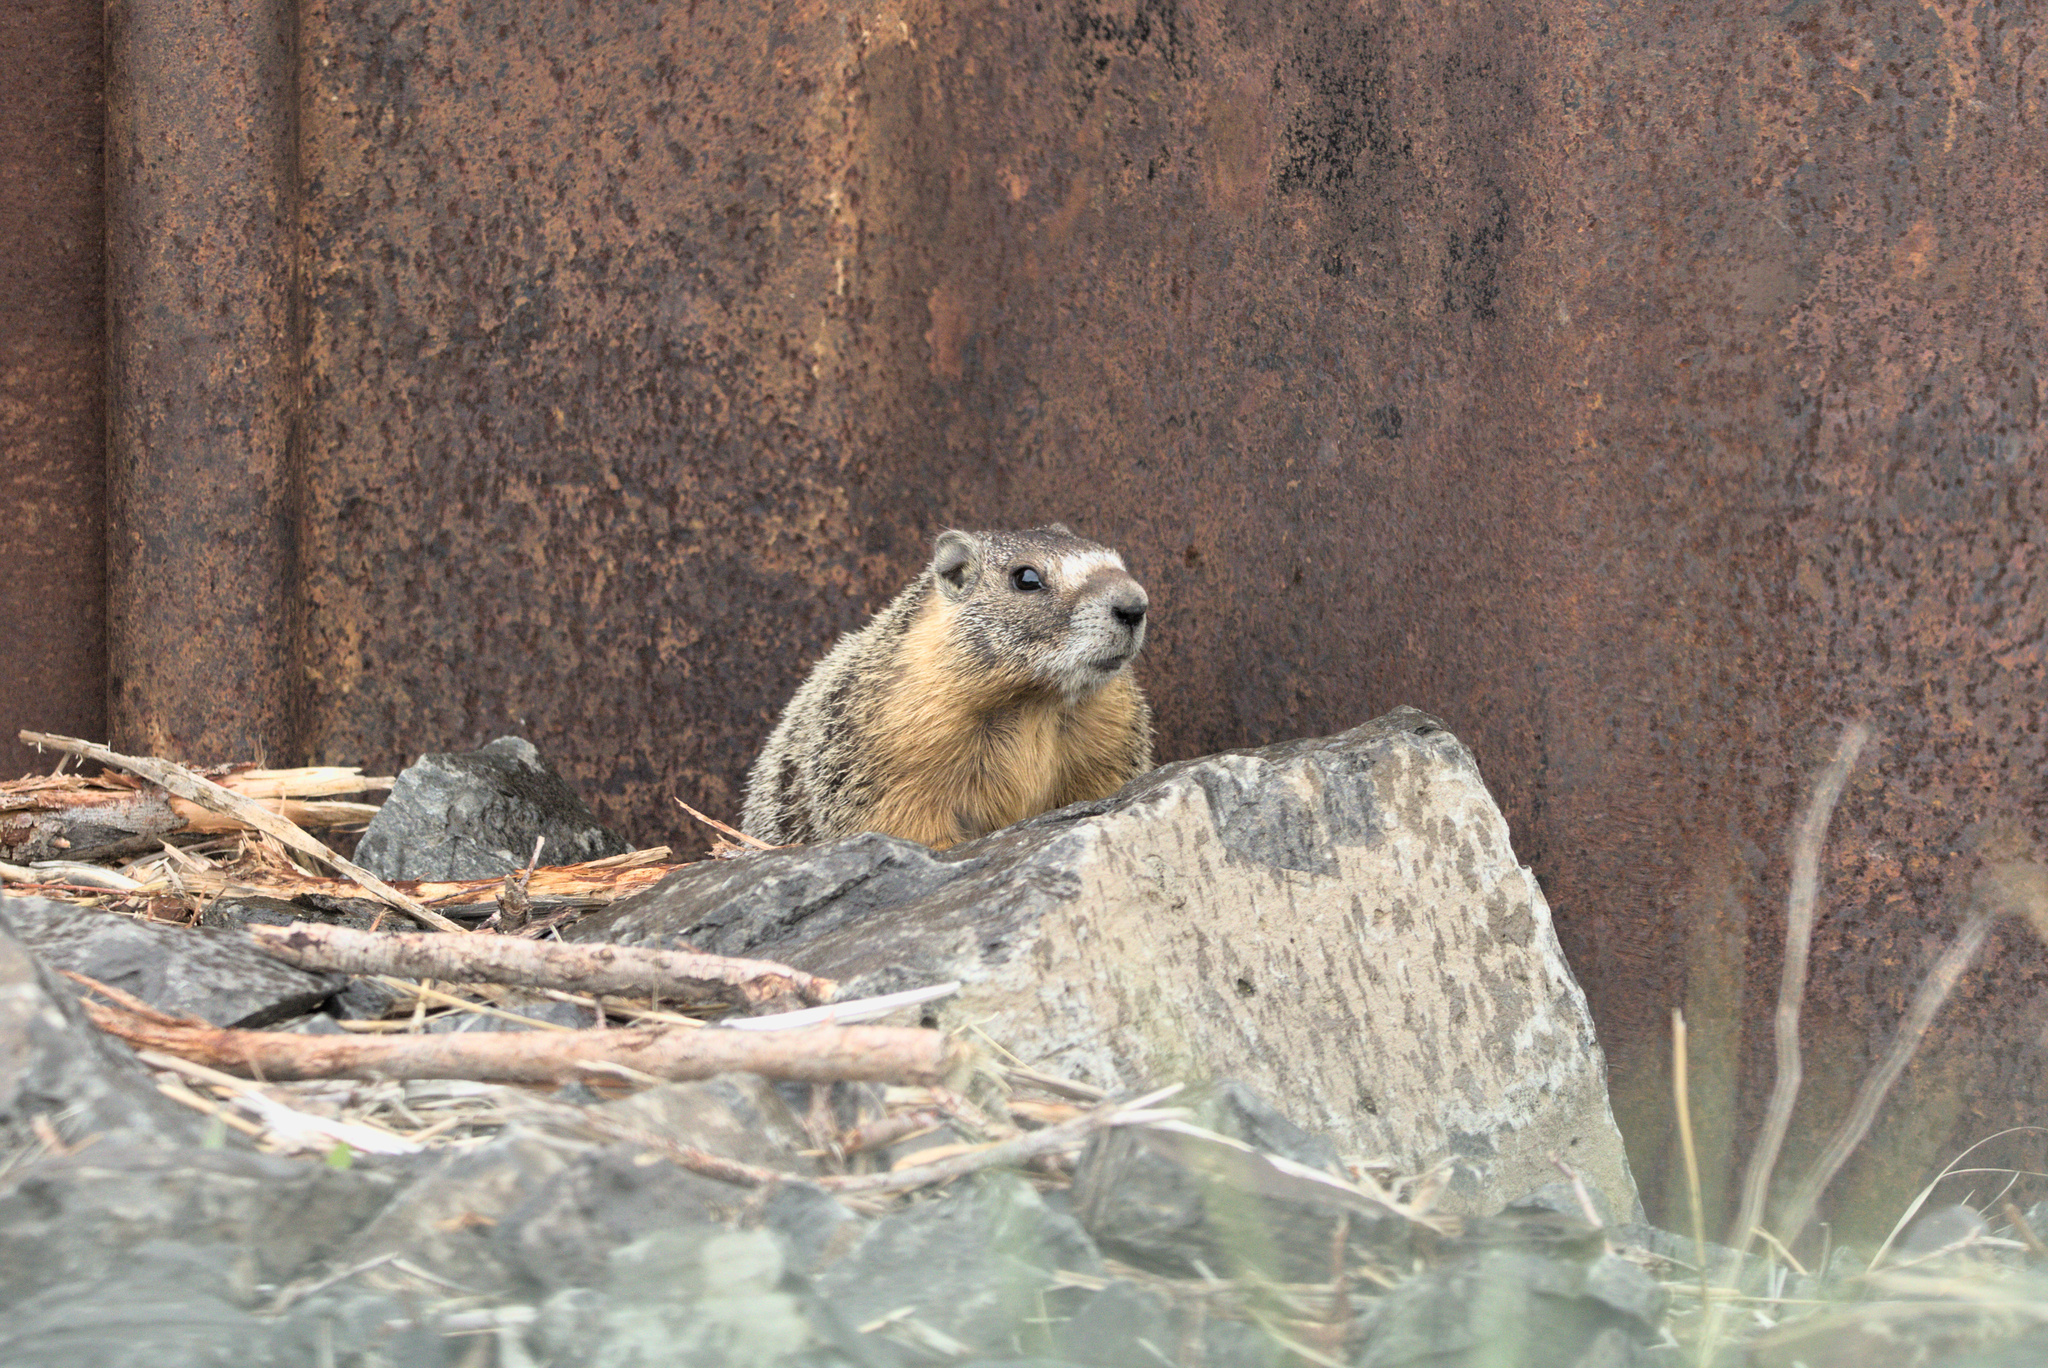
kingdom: Animalia
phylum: Chordata
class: Mammalia
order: Rodentia
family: Sciuridae
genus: Marmota
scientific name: Marmota flaviventris
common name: Yellow-bellied marmot
